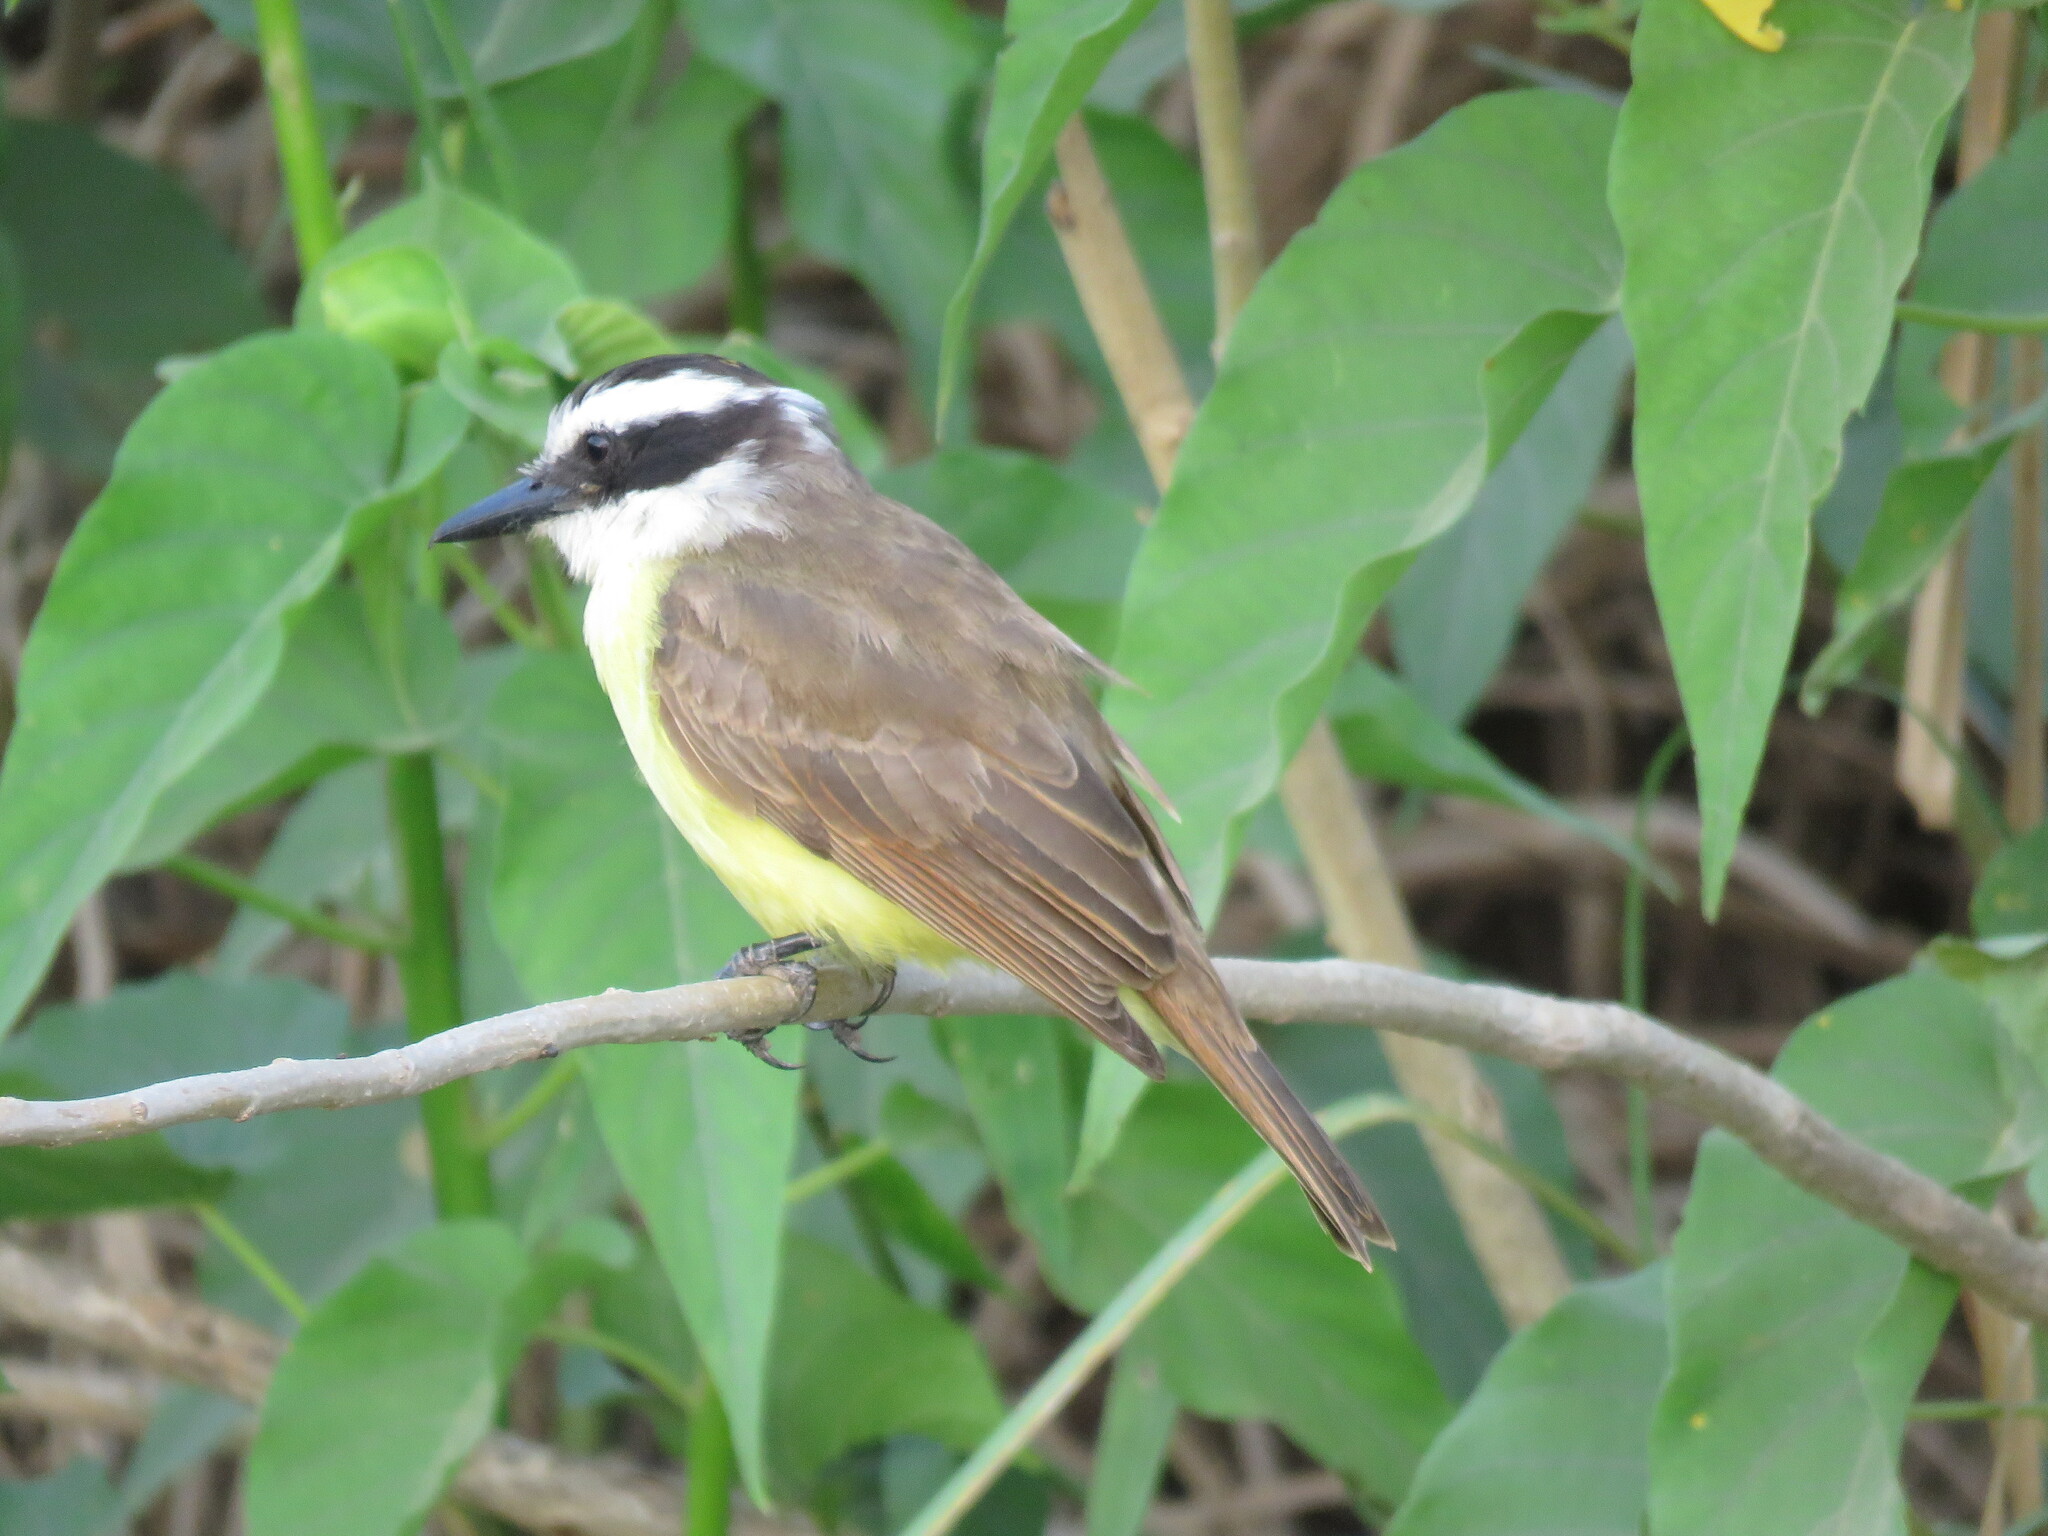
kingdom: Animalia
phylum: Chordata
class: Aves
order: Passeriformes
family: Tyrannidae
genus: Pitangus
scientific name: Pitangus sulphuratus
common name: Great kiskadee
